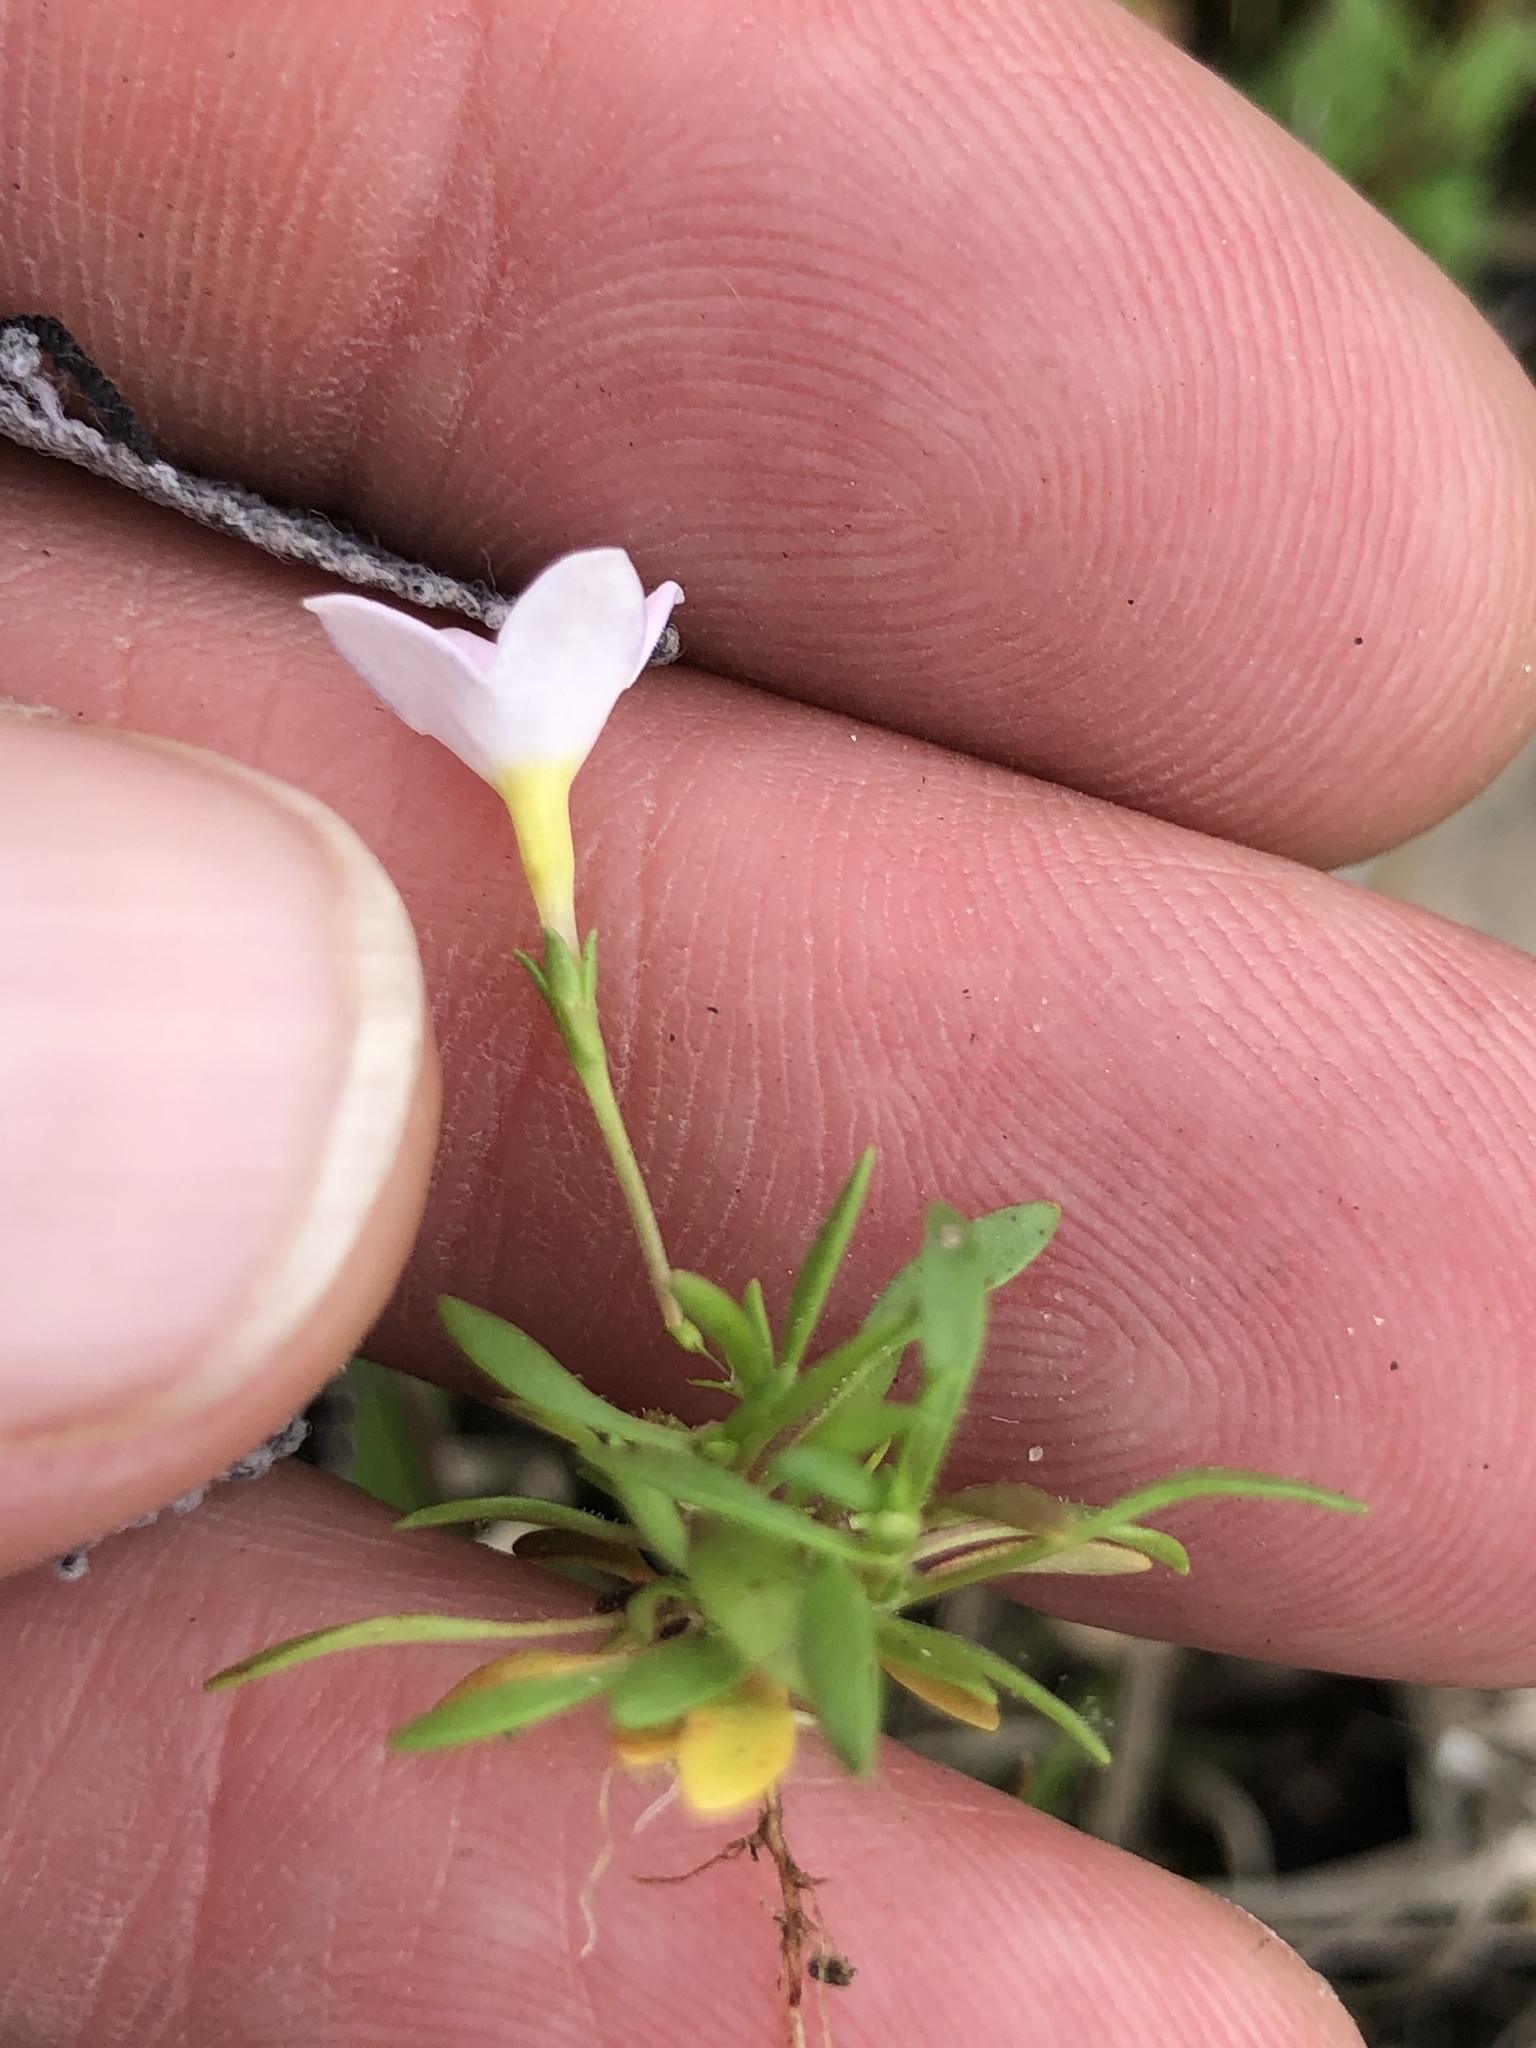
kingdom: Plantae
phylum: Tracheophyta
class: Magnoliopsida
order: Gentianales
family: Rubiaceae
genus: Houstonia
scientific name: Houstonia rosea
